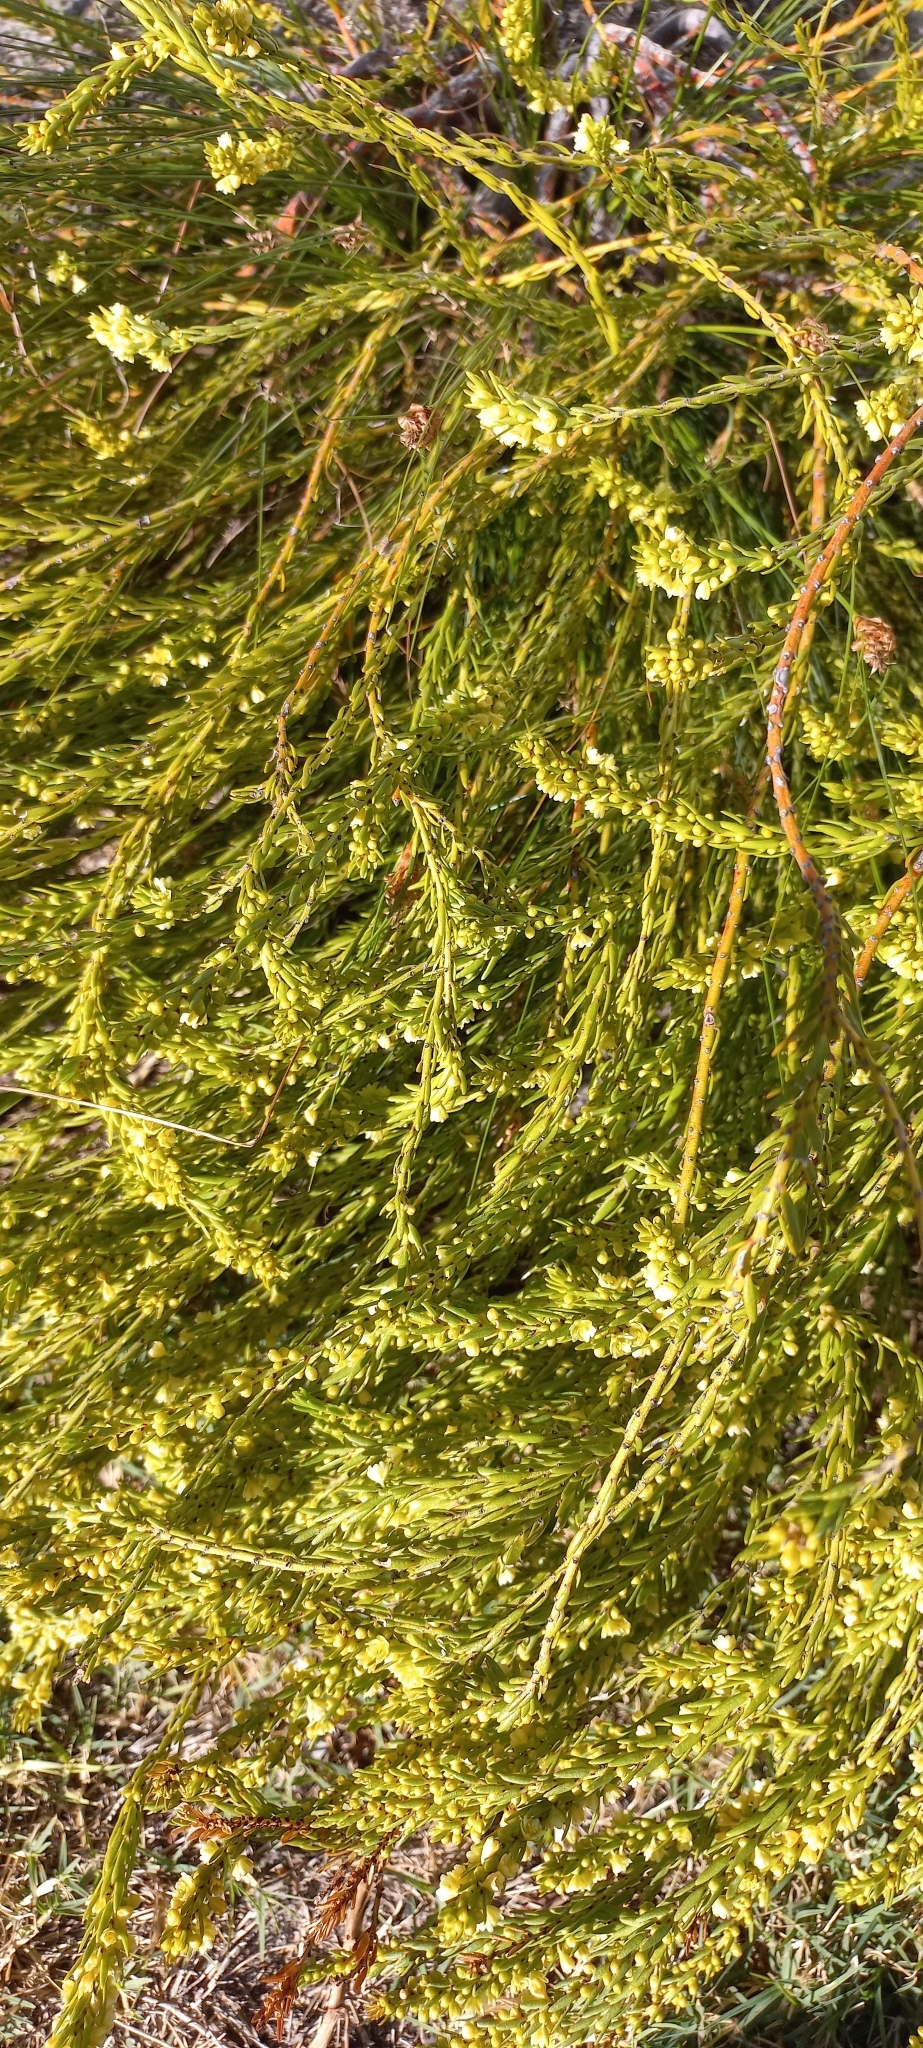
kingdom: Plantae
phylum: Tracheophyta
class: Magnoliopsida
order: Malpighiales
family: Peraceae
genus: Clutia
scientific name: Clutia ericoides
